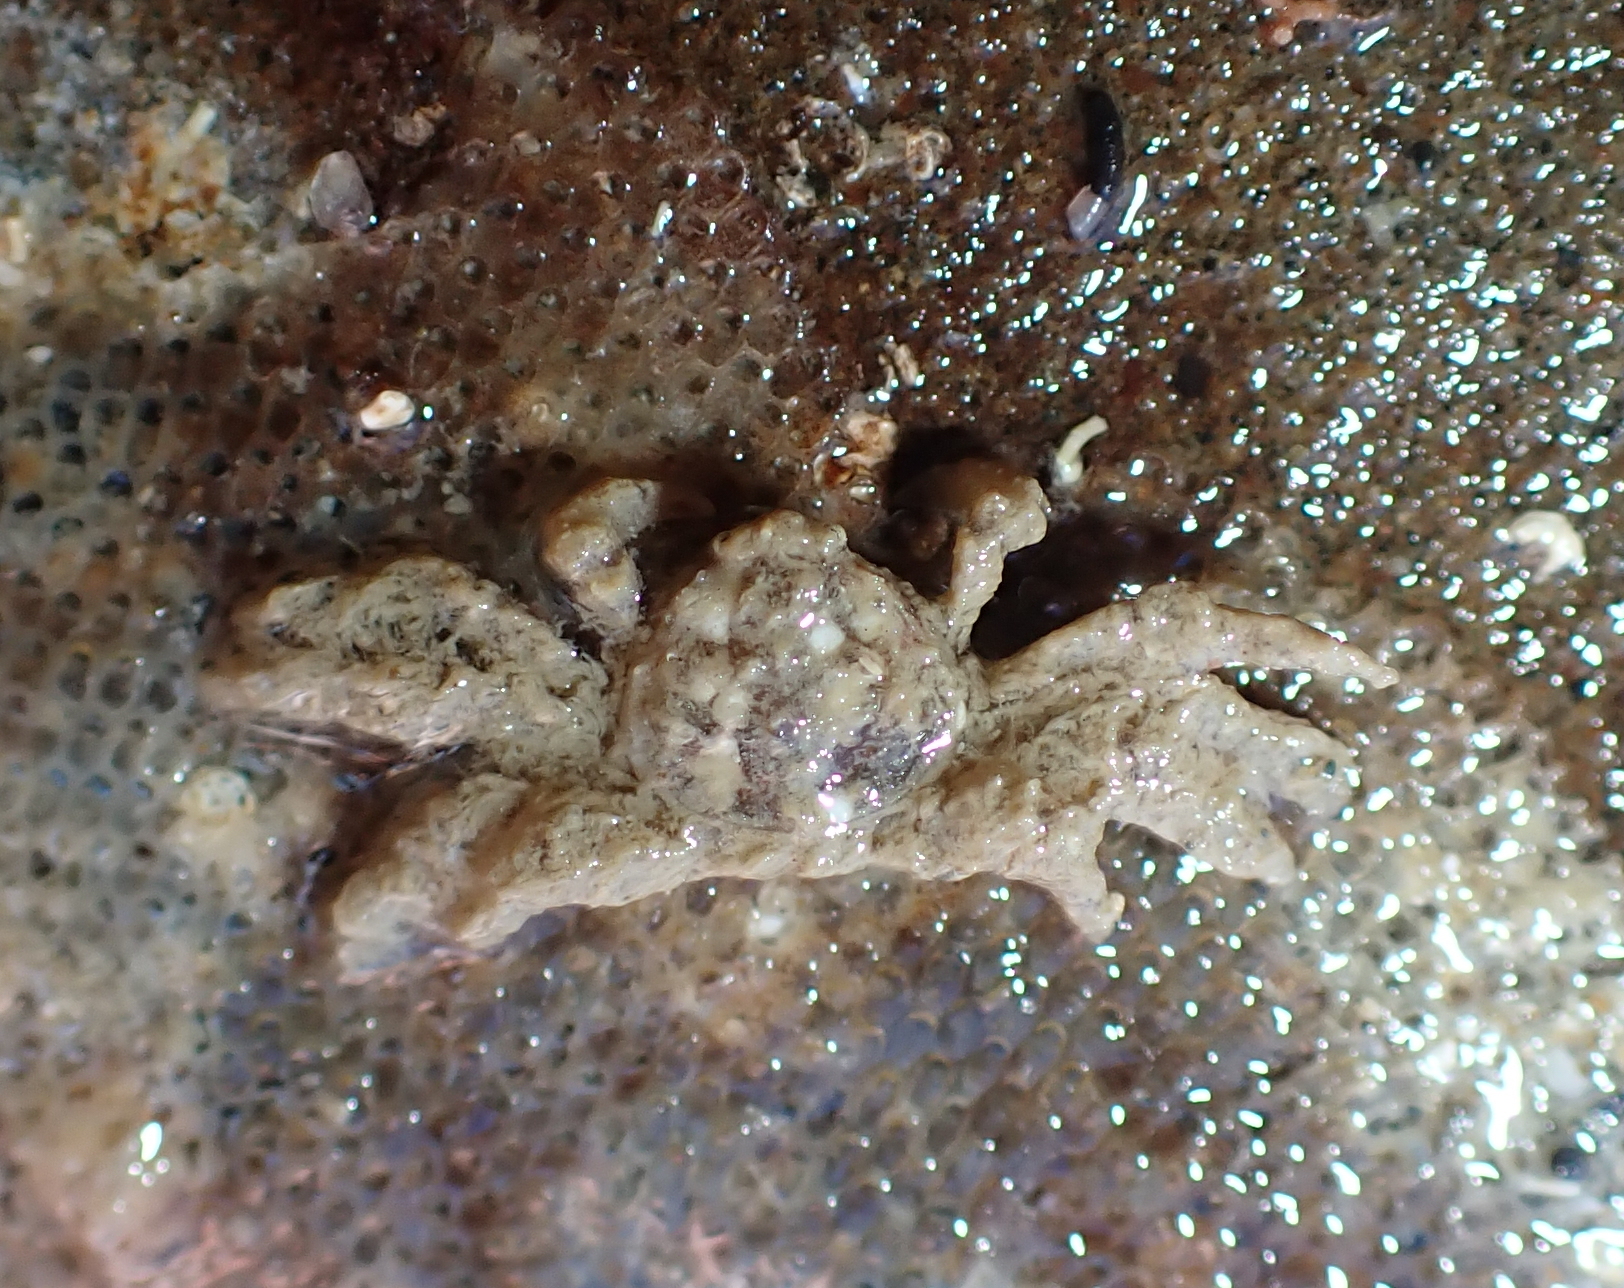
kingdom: Animalia
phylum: Arthropoda
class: Malacostraca
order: Decapoda
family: Hymenosomatidae
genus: Neohymenicus
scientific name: Neohymenicus pubescens
